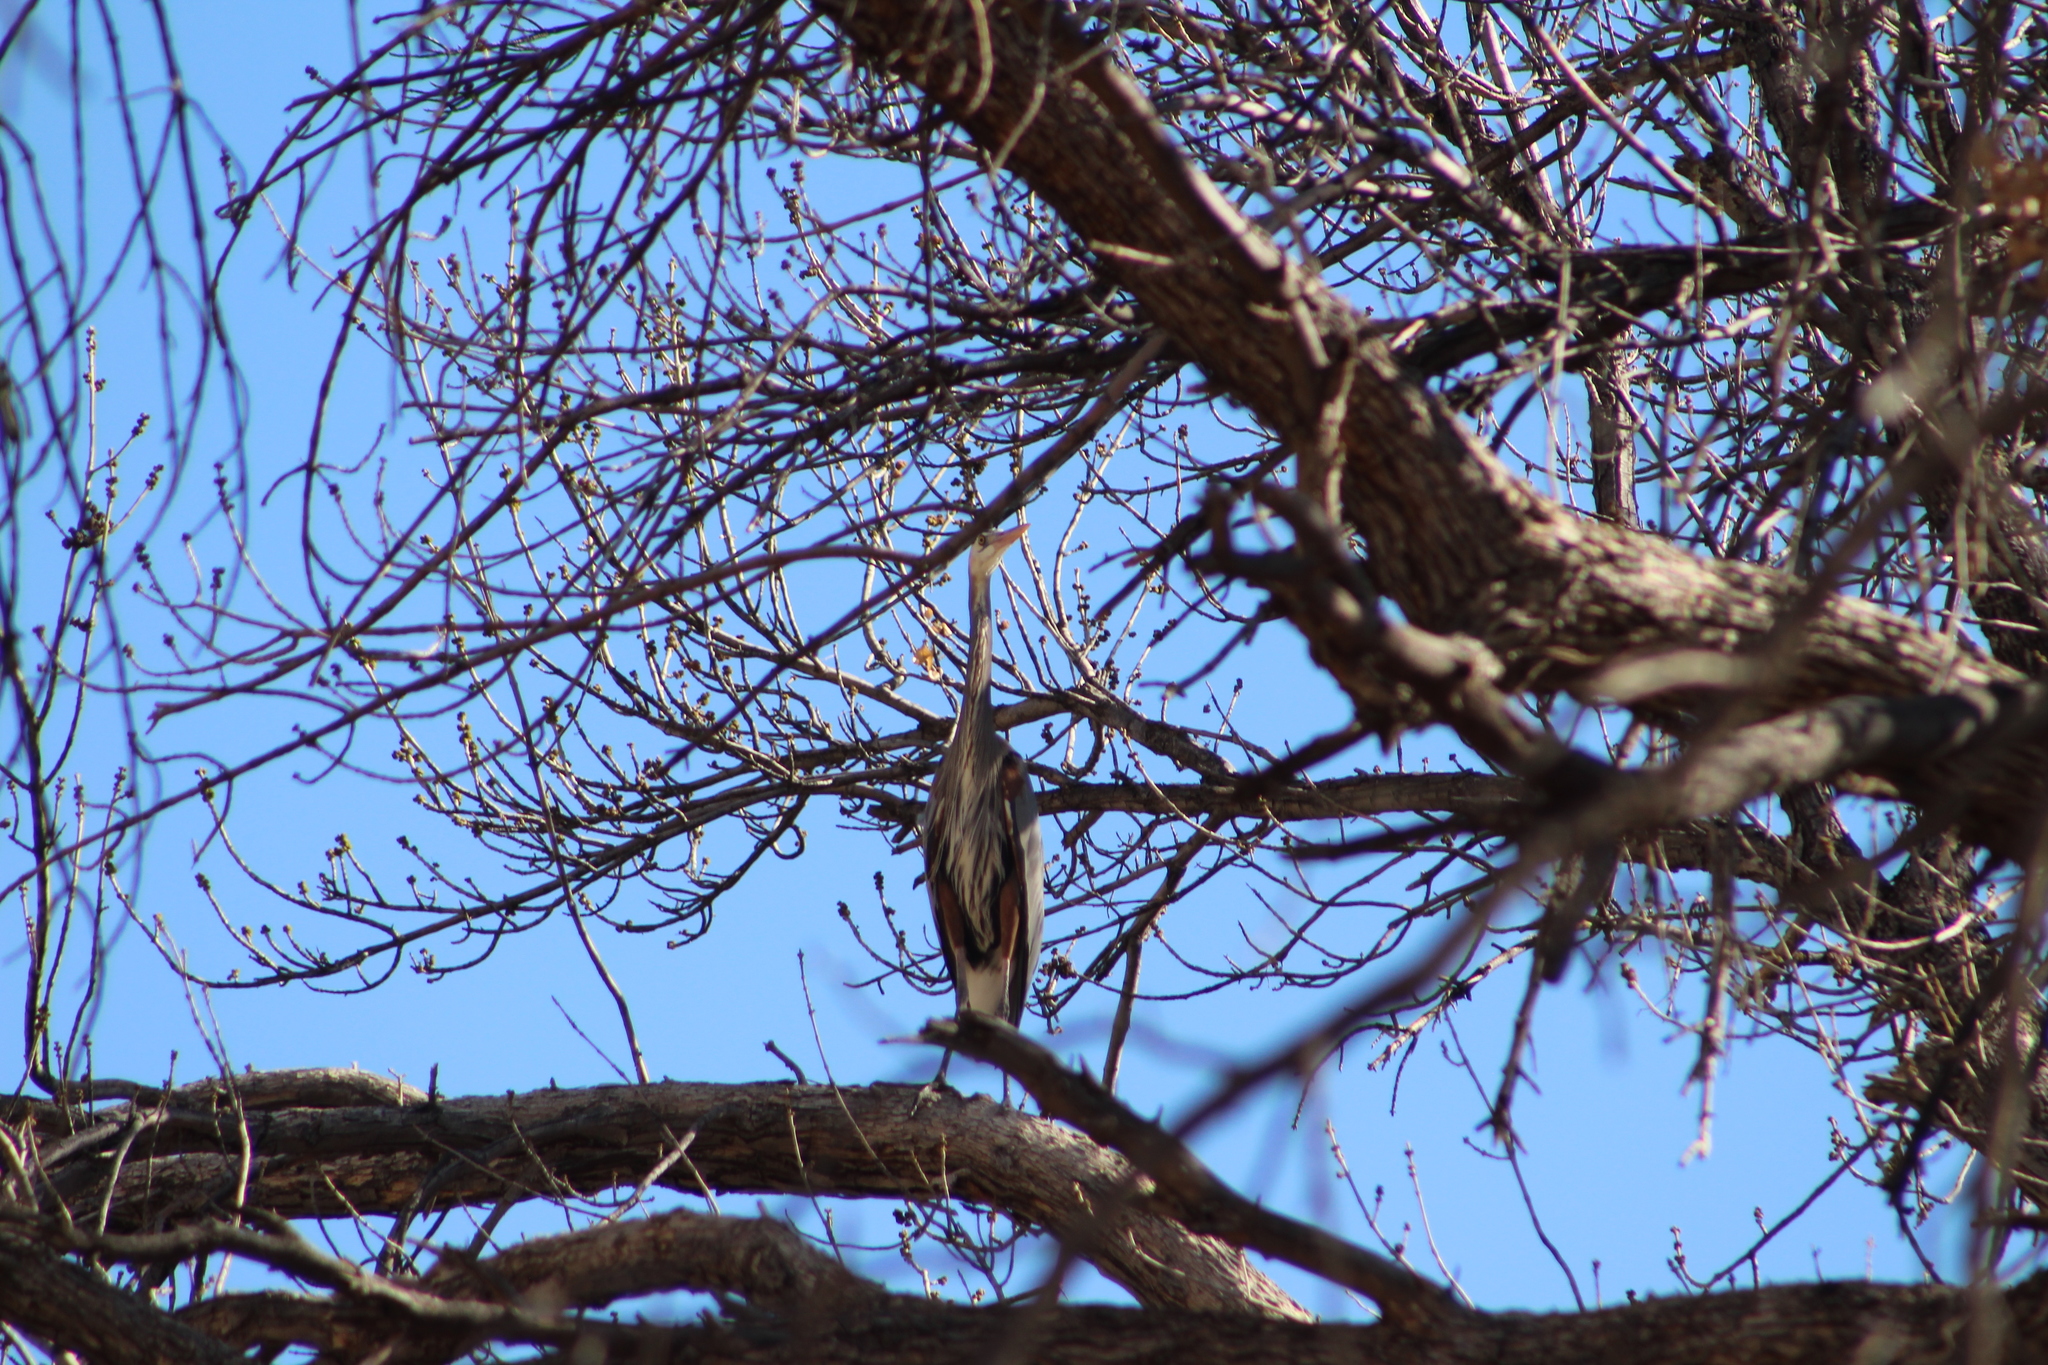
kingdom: Animalia
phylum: Chordata
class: Aves
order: Pelecaniformes
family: Ardeidae
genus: Ardea
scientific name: Ardea herodias
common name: Great blue heron
